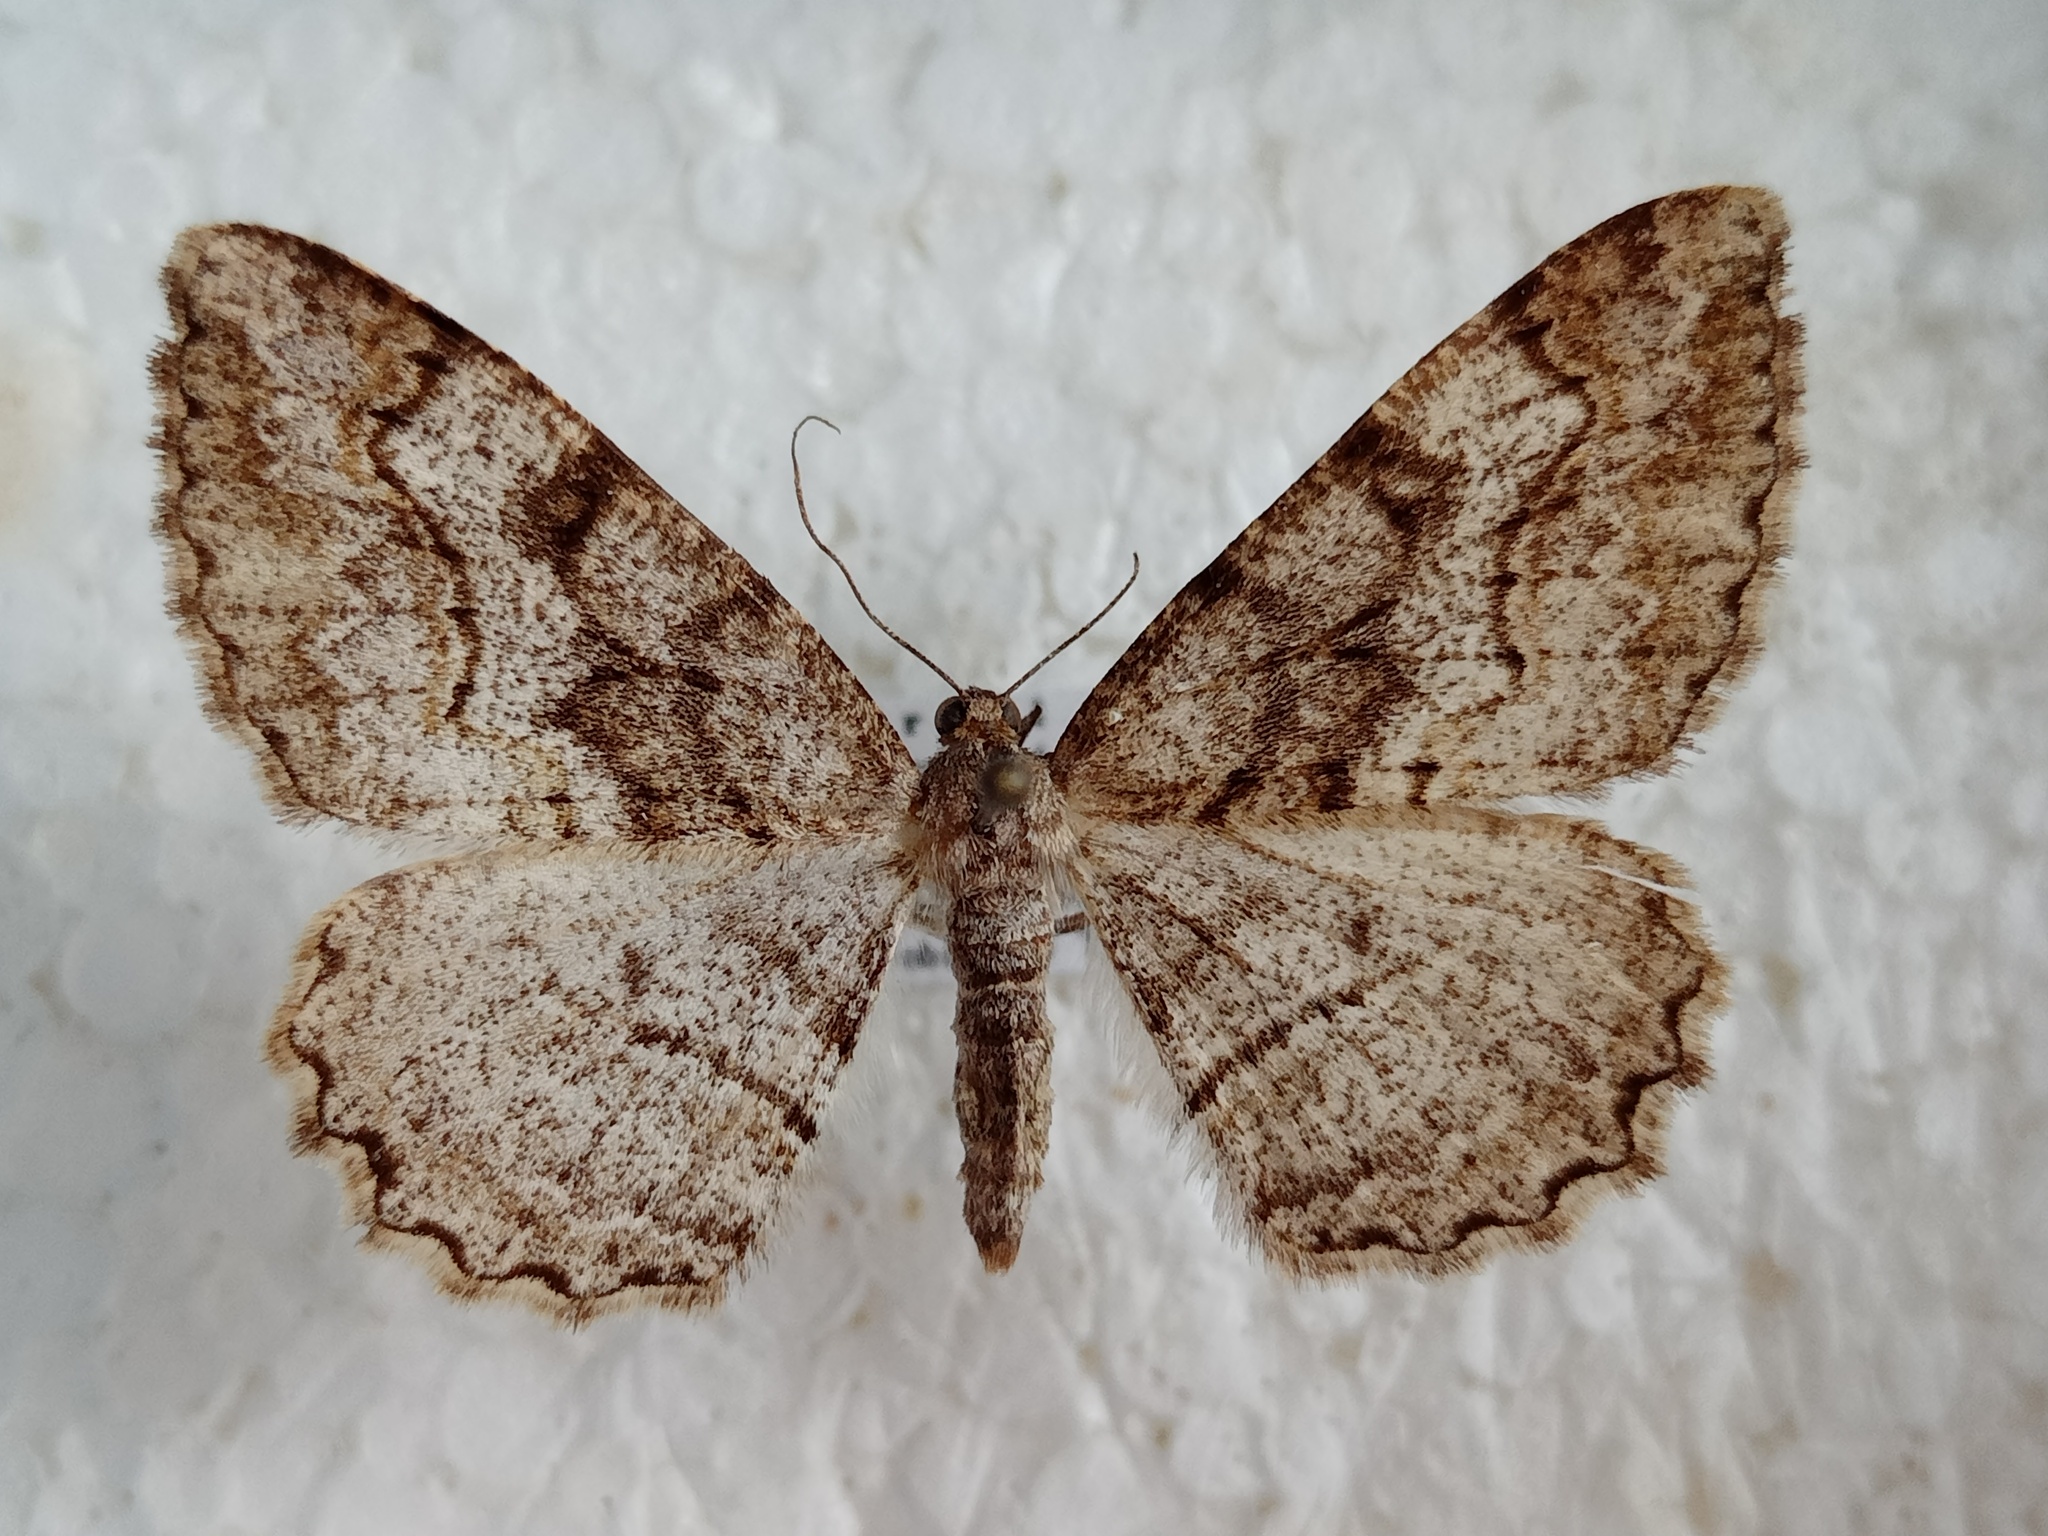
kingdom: Animalia
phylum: Arthropoda
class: Insecta
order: Lepidoptera
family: Geometridae
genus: Alcis
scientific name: Alcis repandata
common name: Mottled beauty
